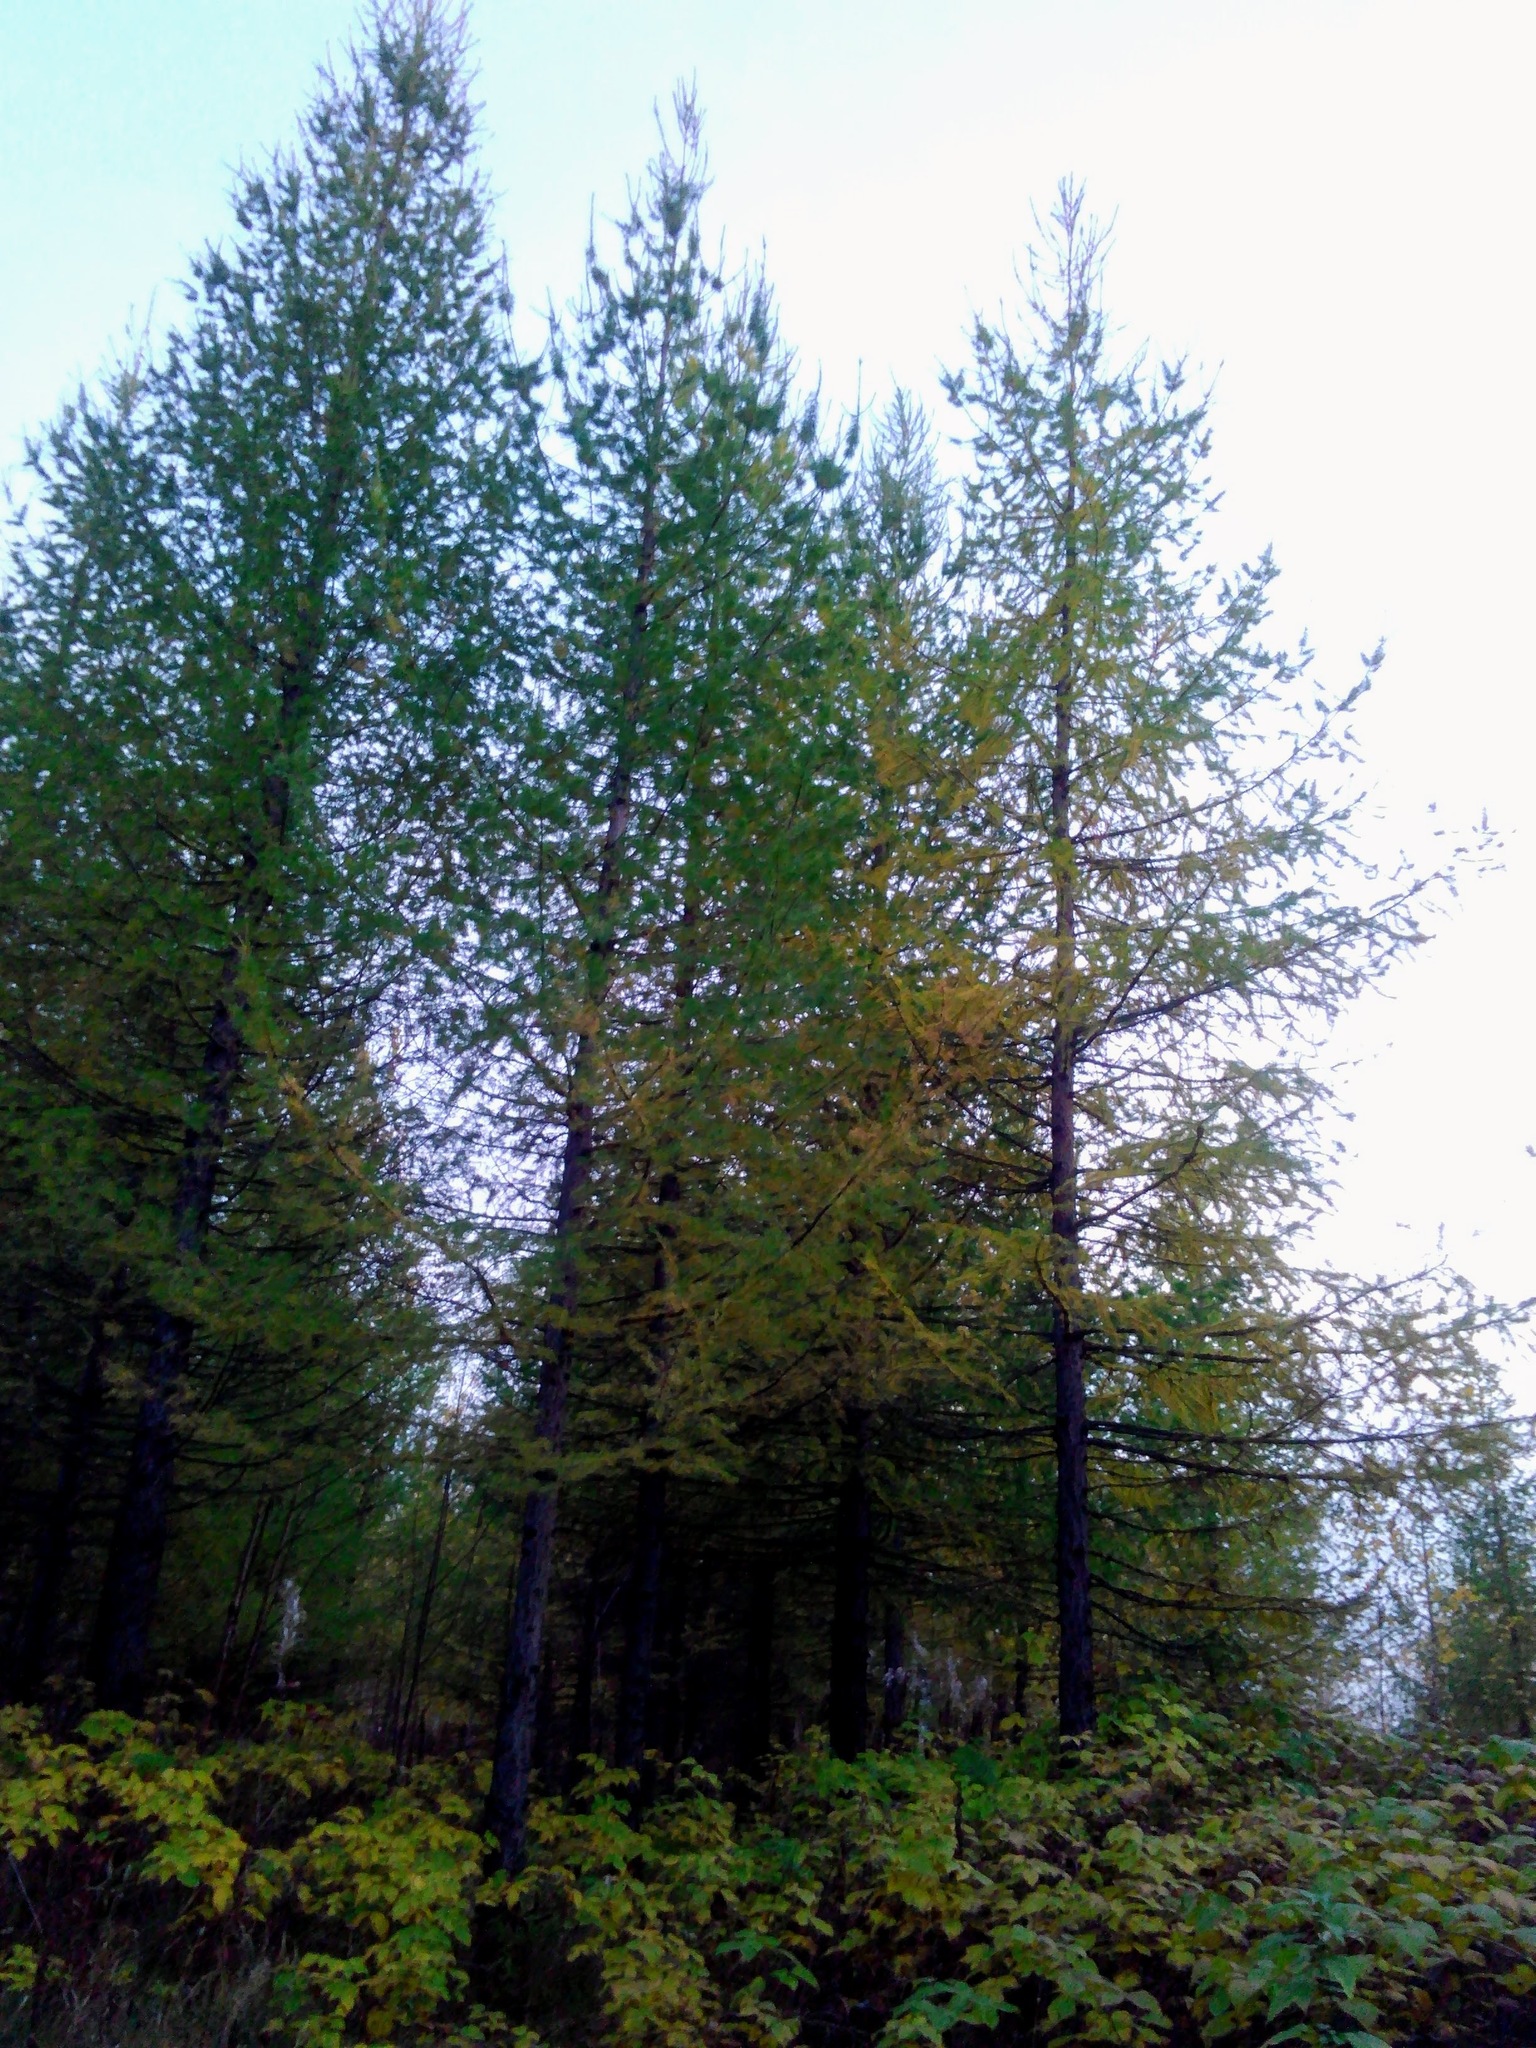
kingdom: Plantae
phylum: Tracheophyta
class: Pinopsida
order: Pinales
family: Pinaceae
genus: Larix
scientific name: Larix sibirica
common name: Siberian larch
